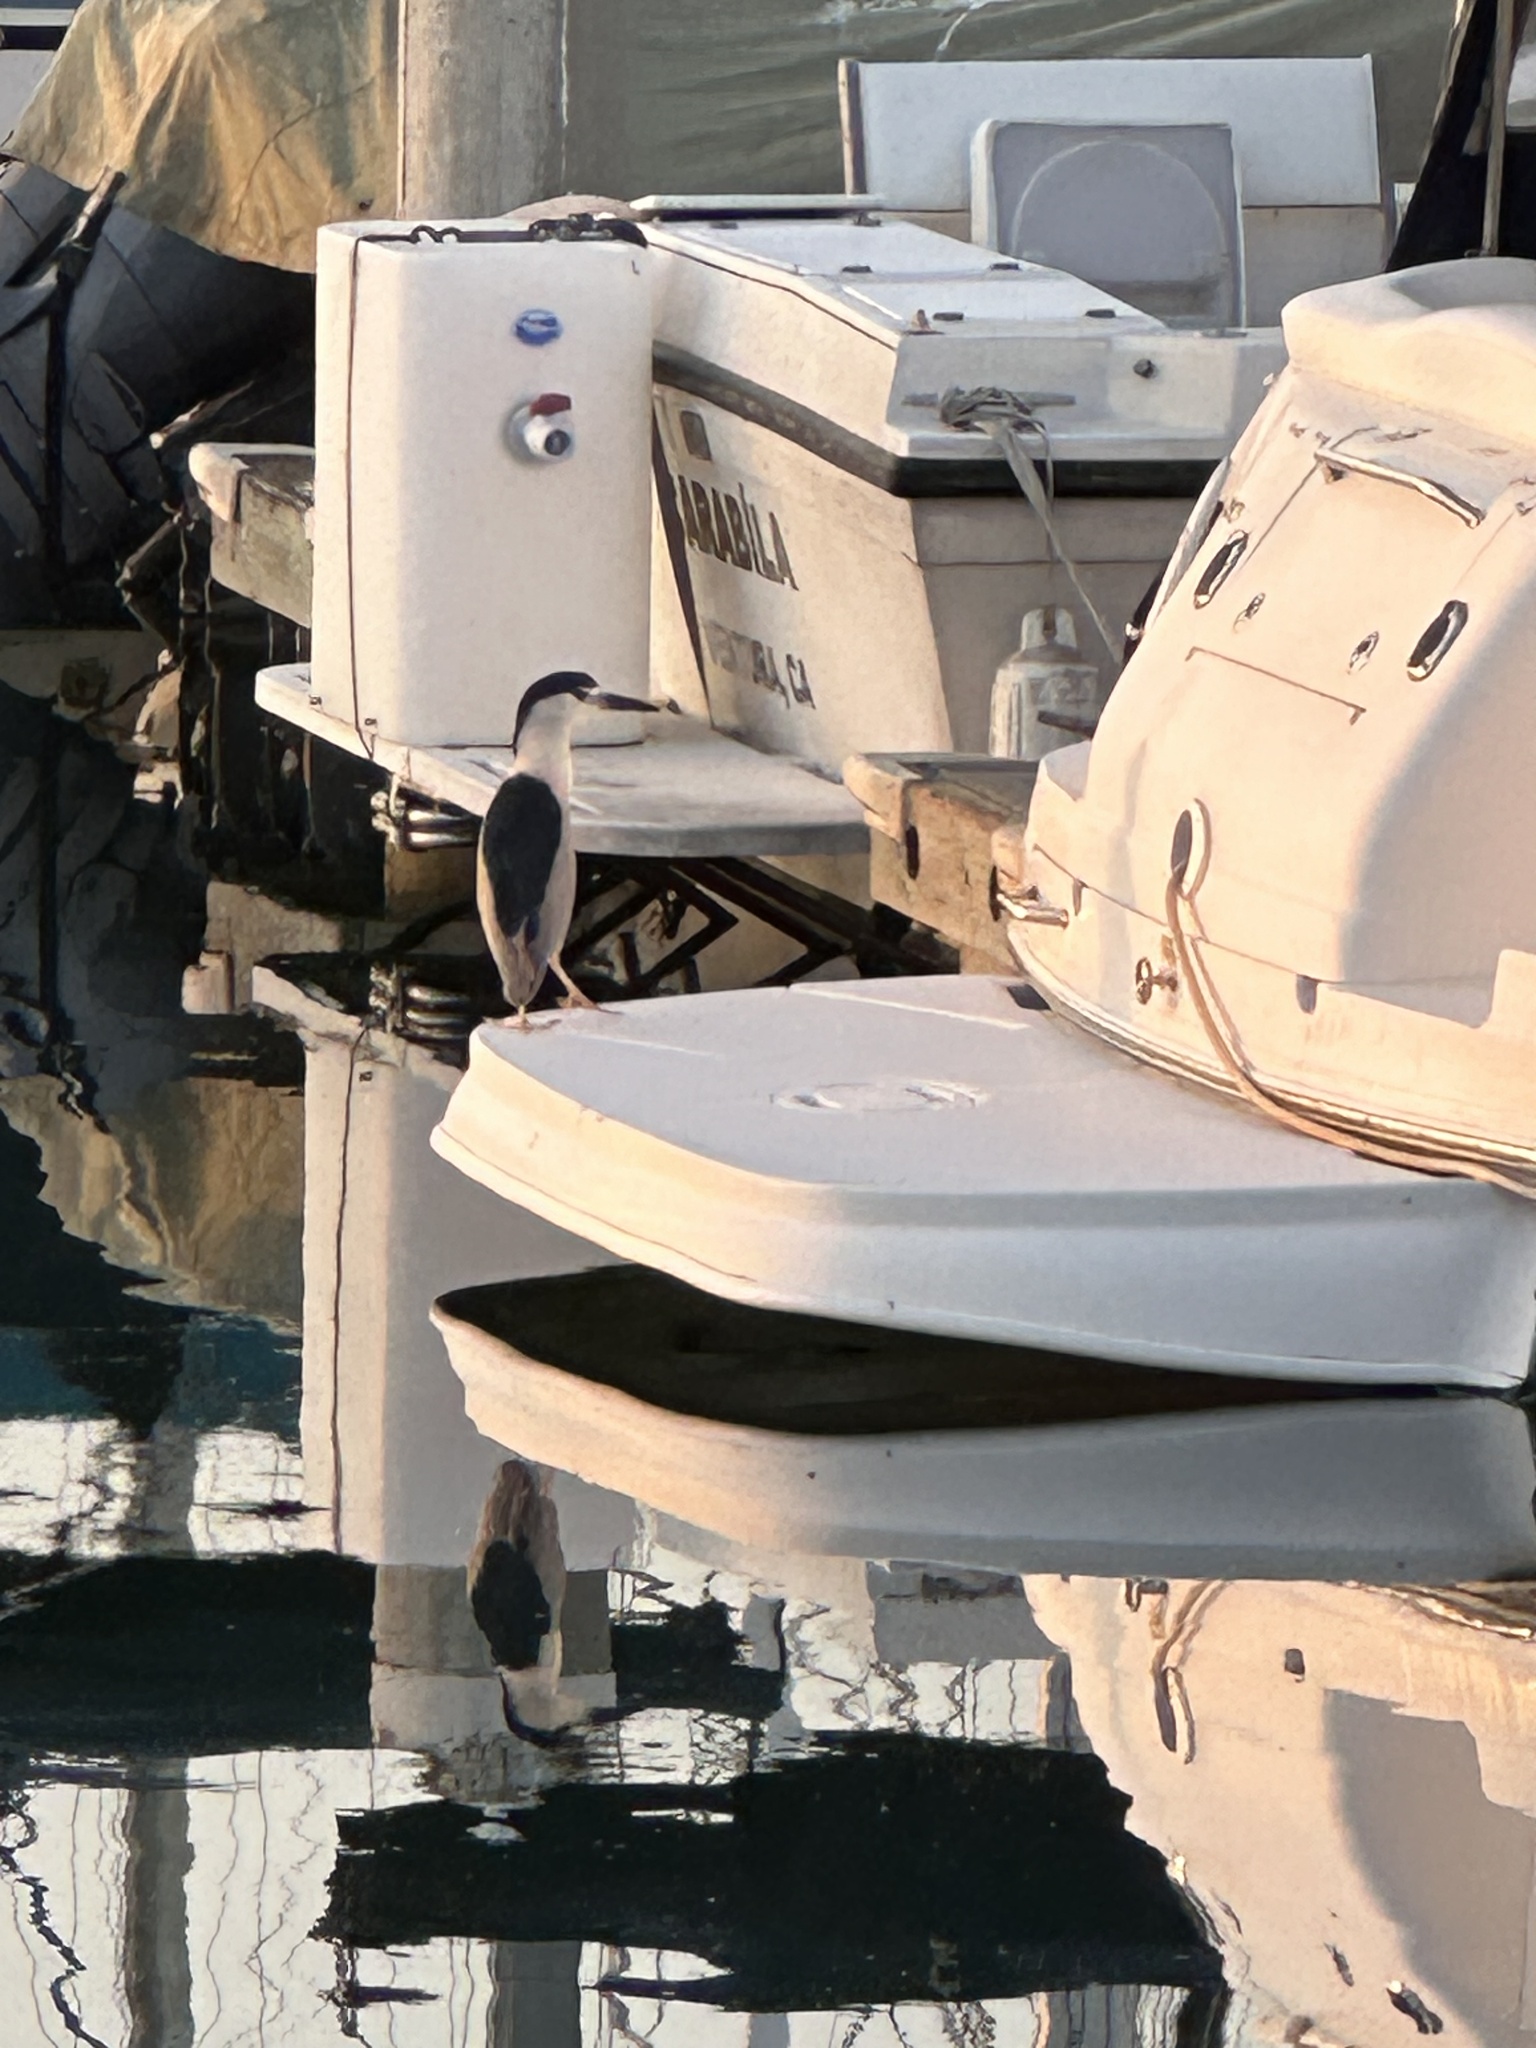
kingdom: Animalia
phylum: Chordata
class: Aves
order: Pelecaniformes
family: Ardeidae
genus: Nycticorax
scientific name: Nycticorax nycticorax
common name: Black-crowned night heron
